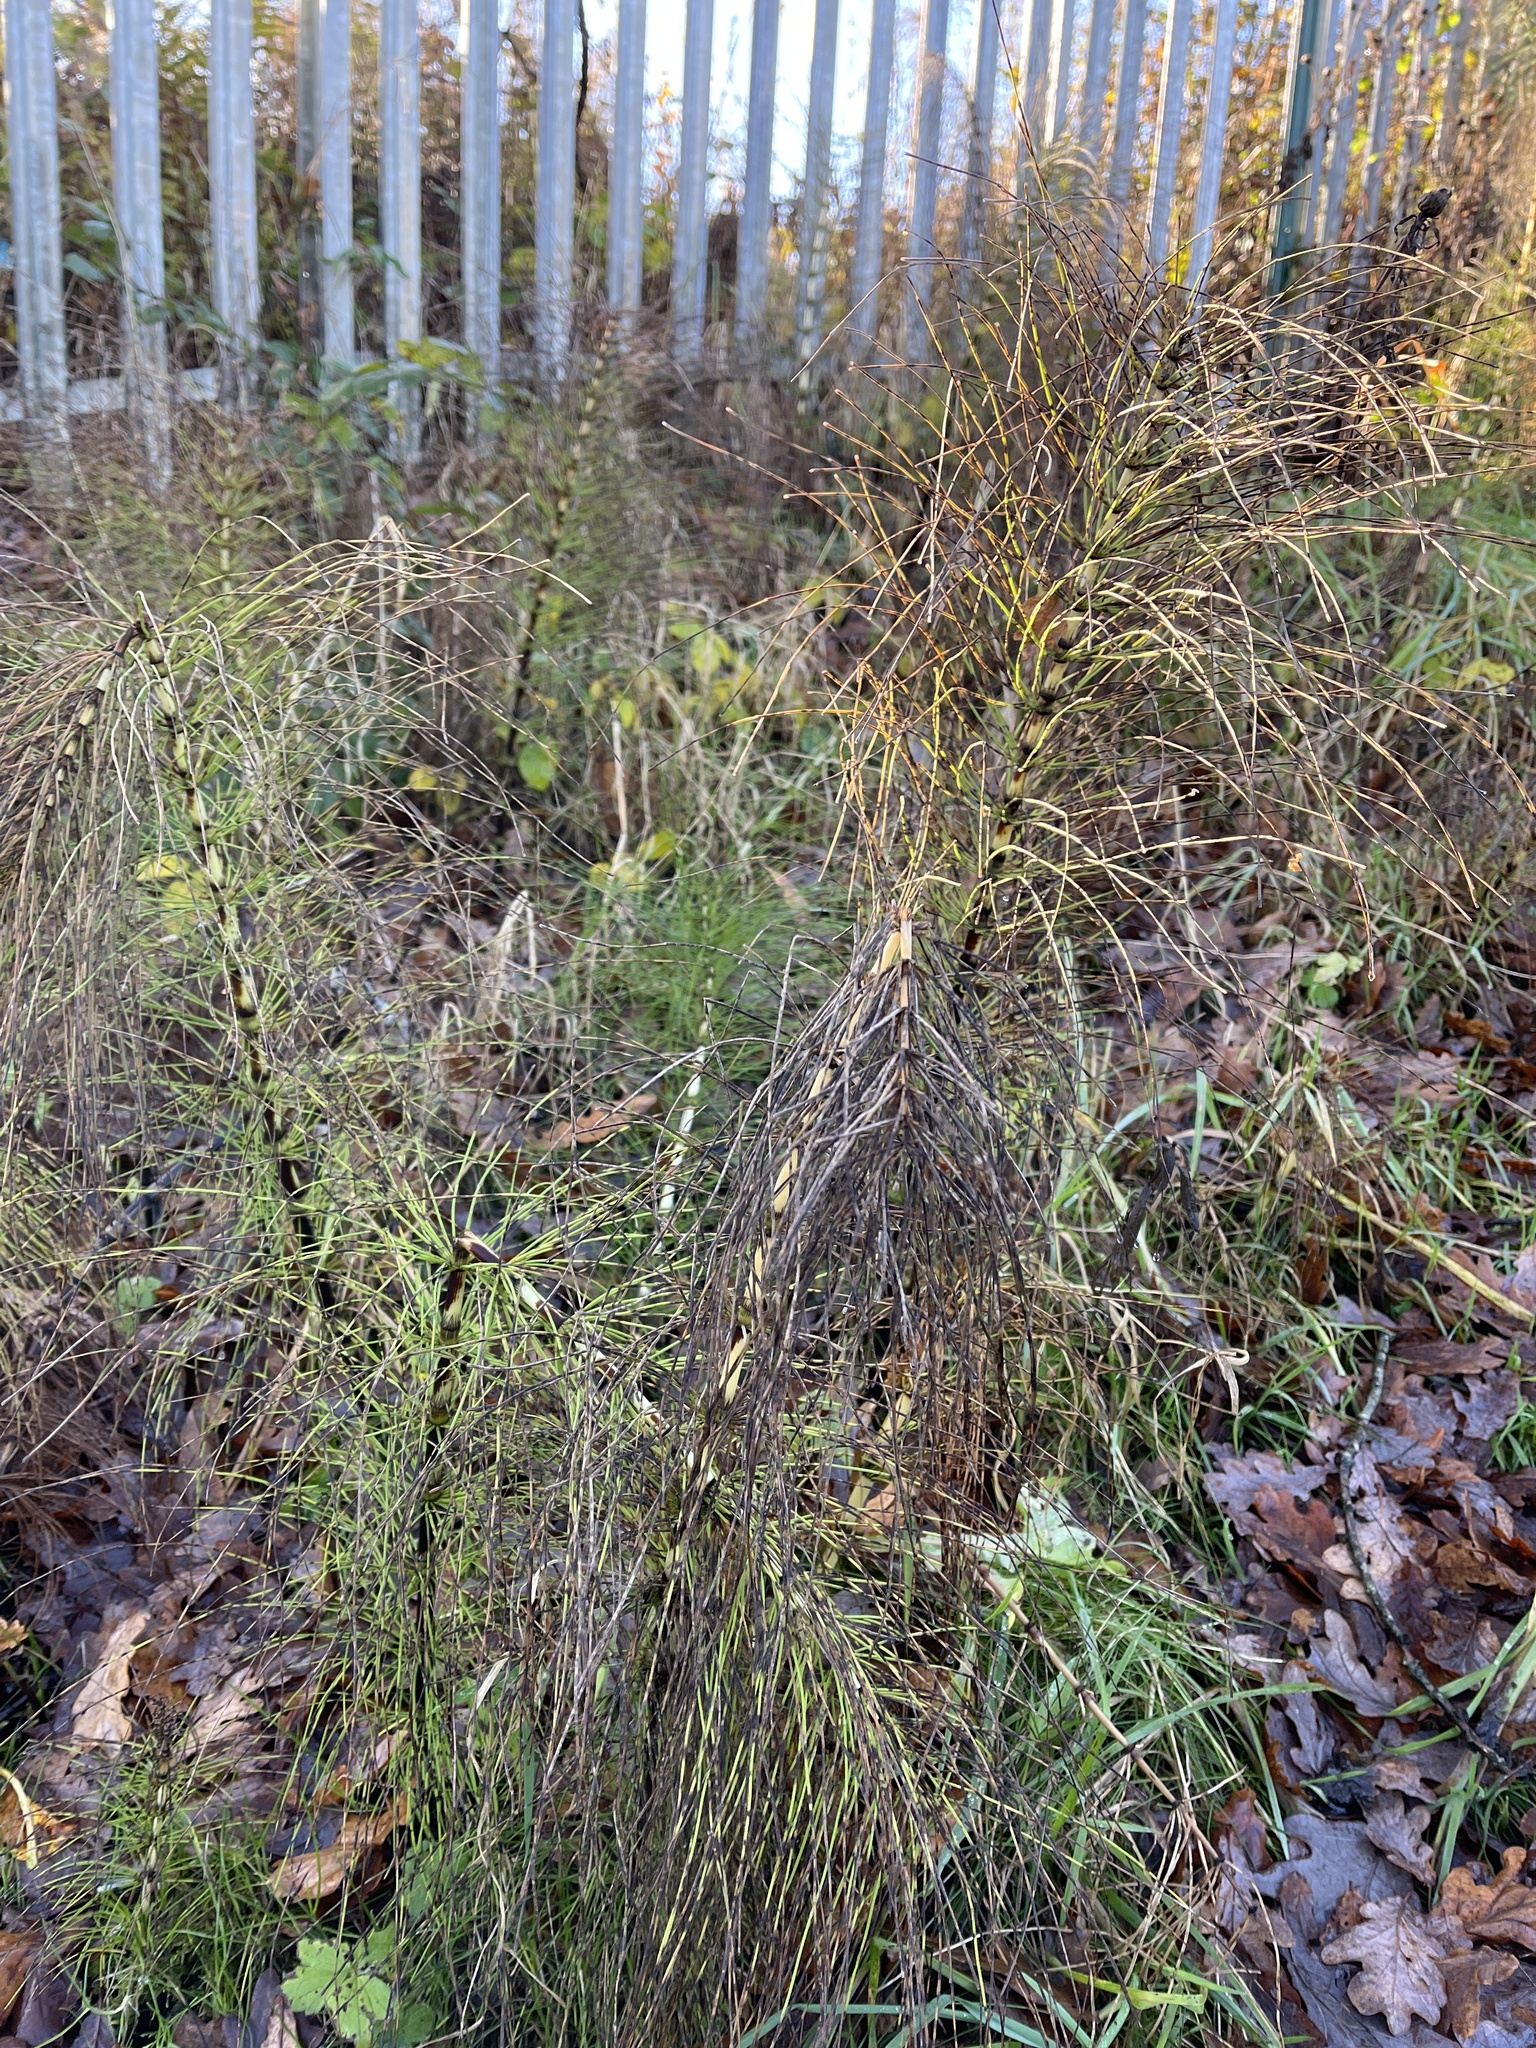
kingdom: Plantae
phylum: Tracheophyta
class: Polypodiopsida
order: Equisetales
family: Equisetaceae
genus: Equisetum
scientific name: Equisetum telmateia
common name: Great horsetail
